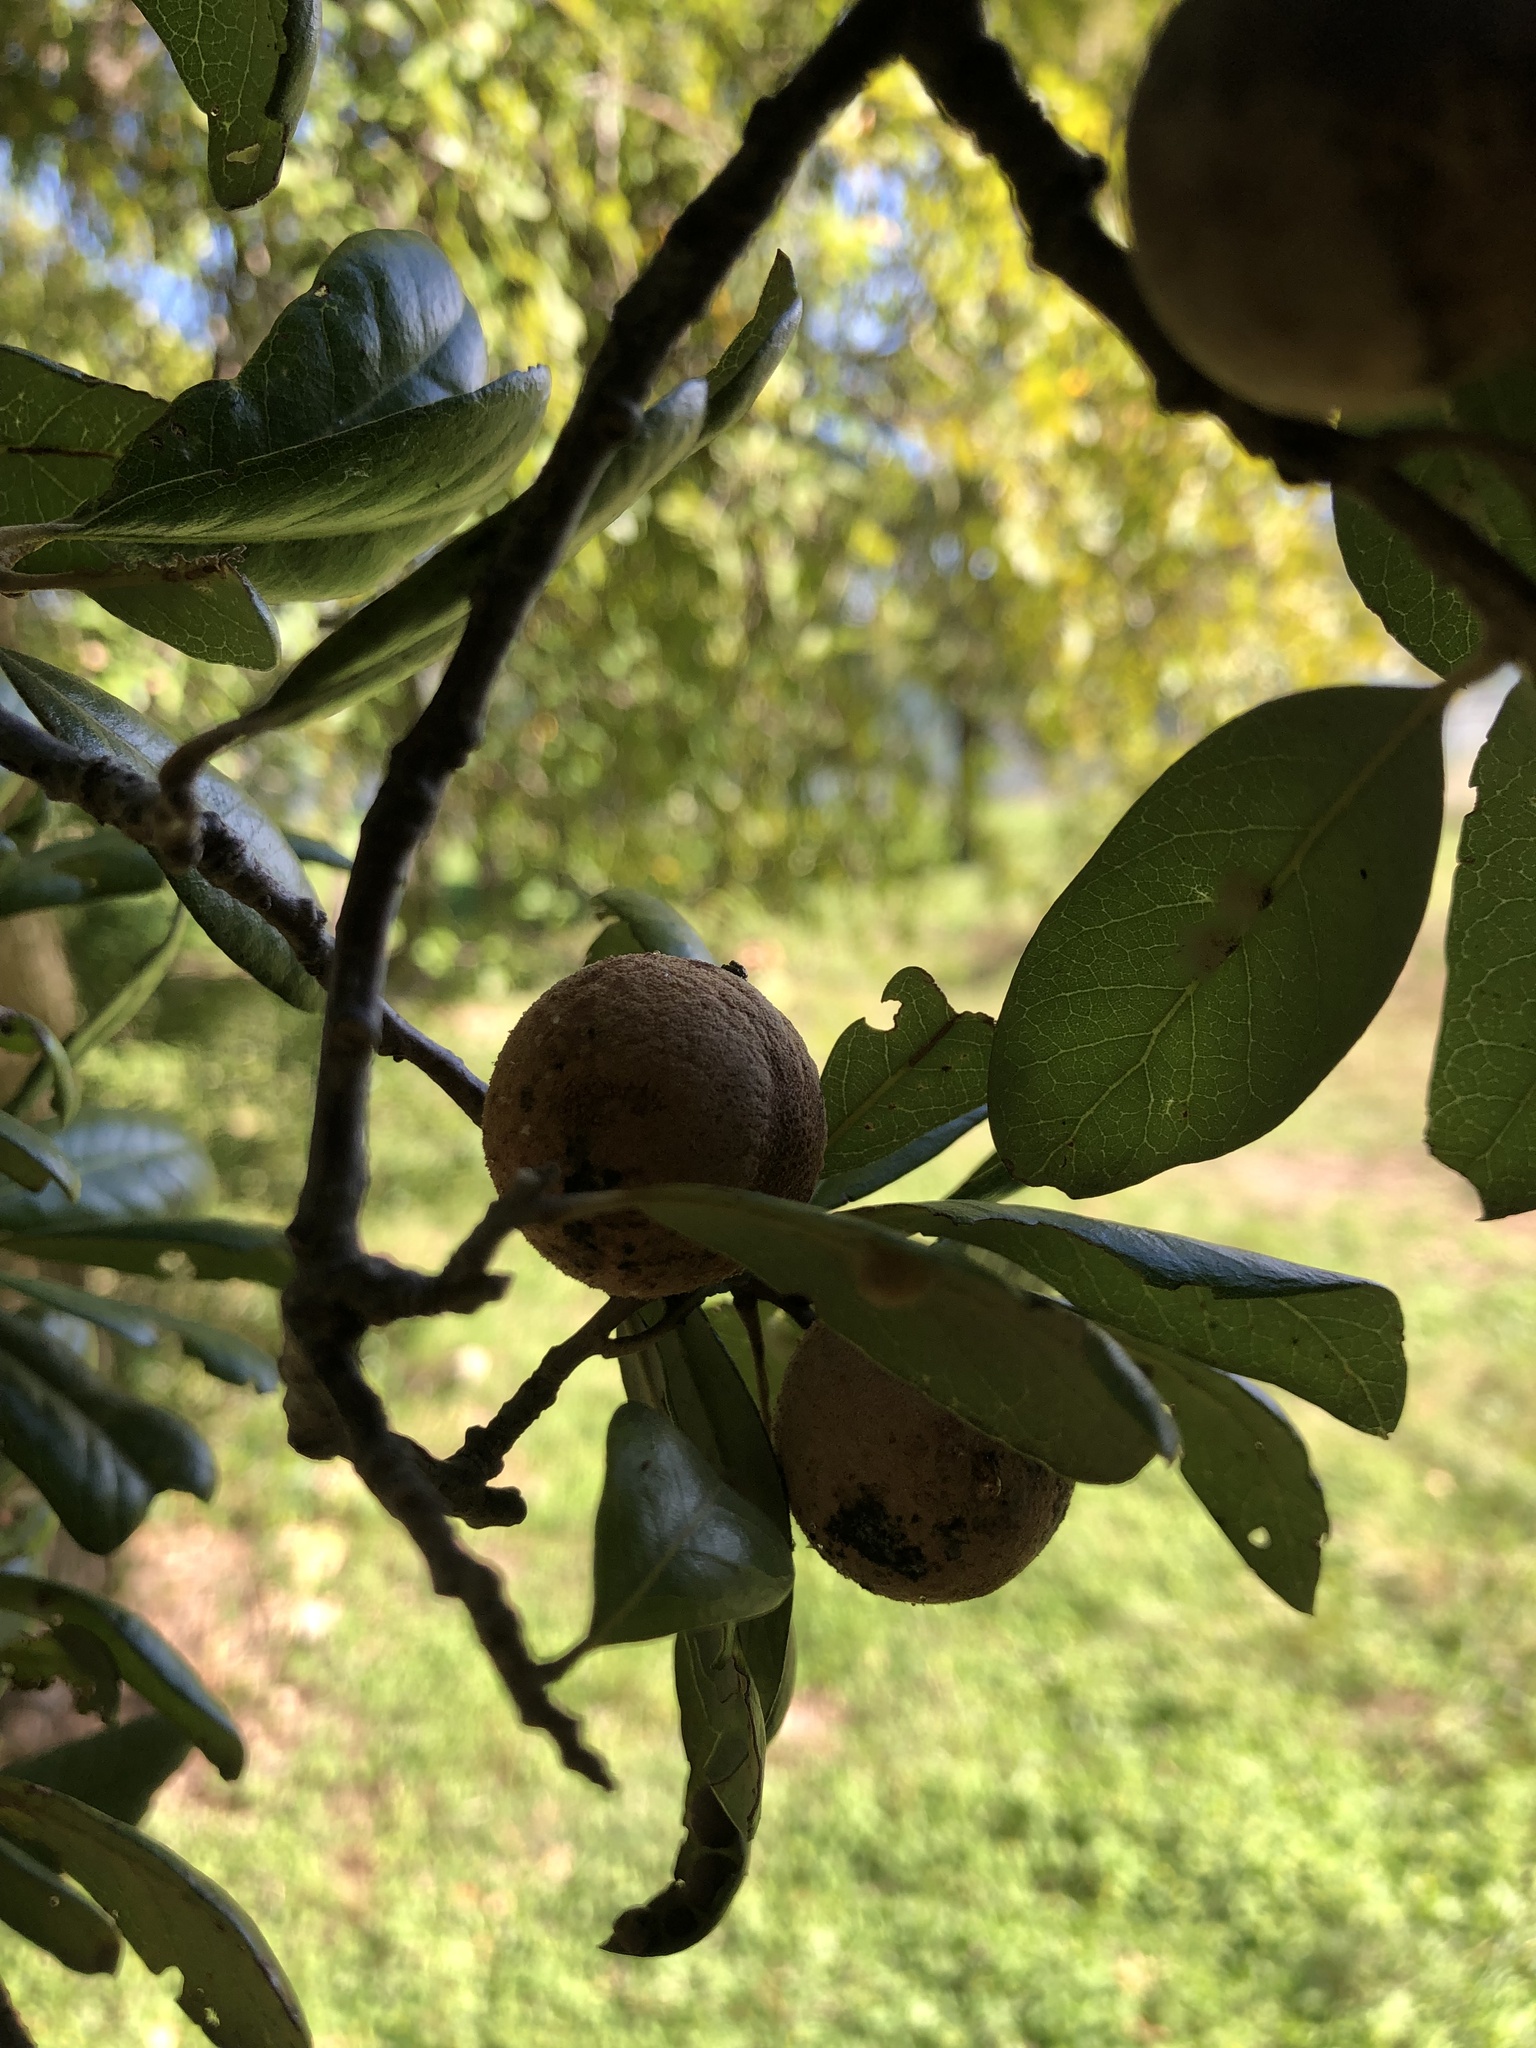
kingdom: Animalia
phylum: Arthropoda
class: Insecta
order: Hymenoptera
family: Cynipidae
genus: Disholcaspis
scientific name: Disholcaspis
